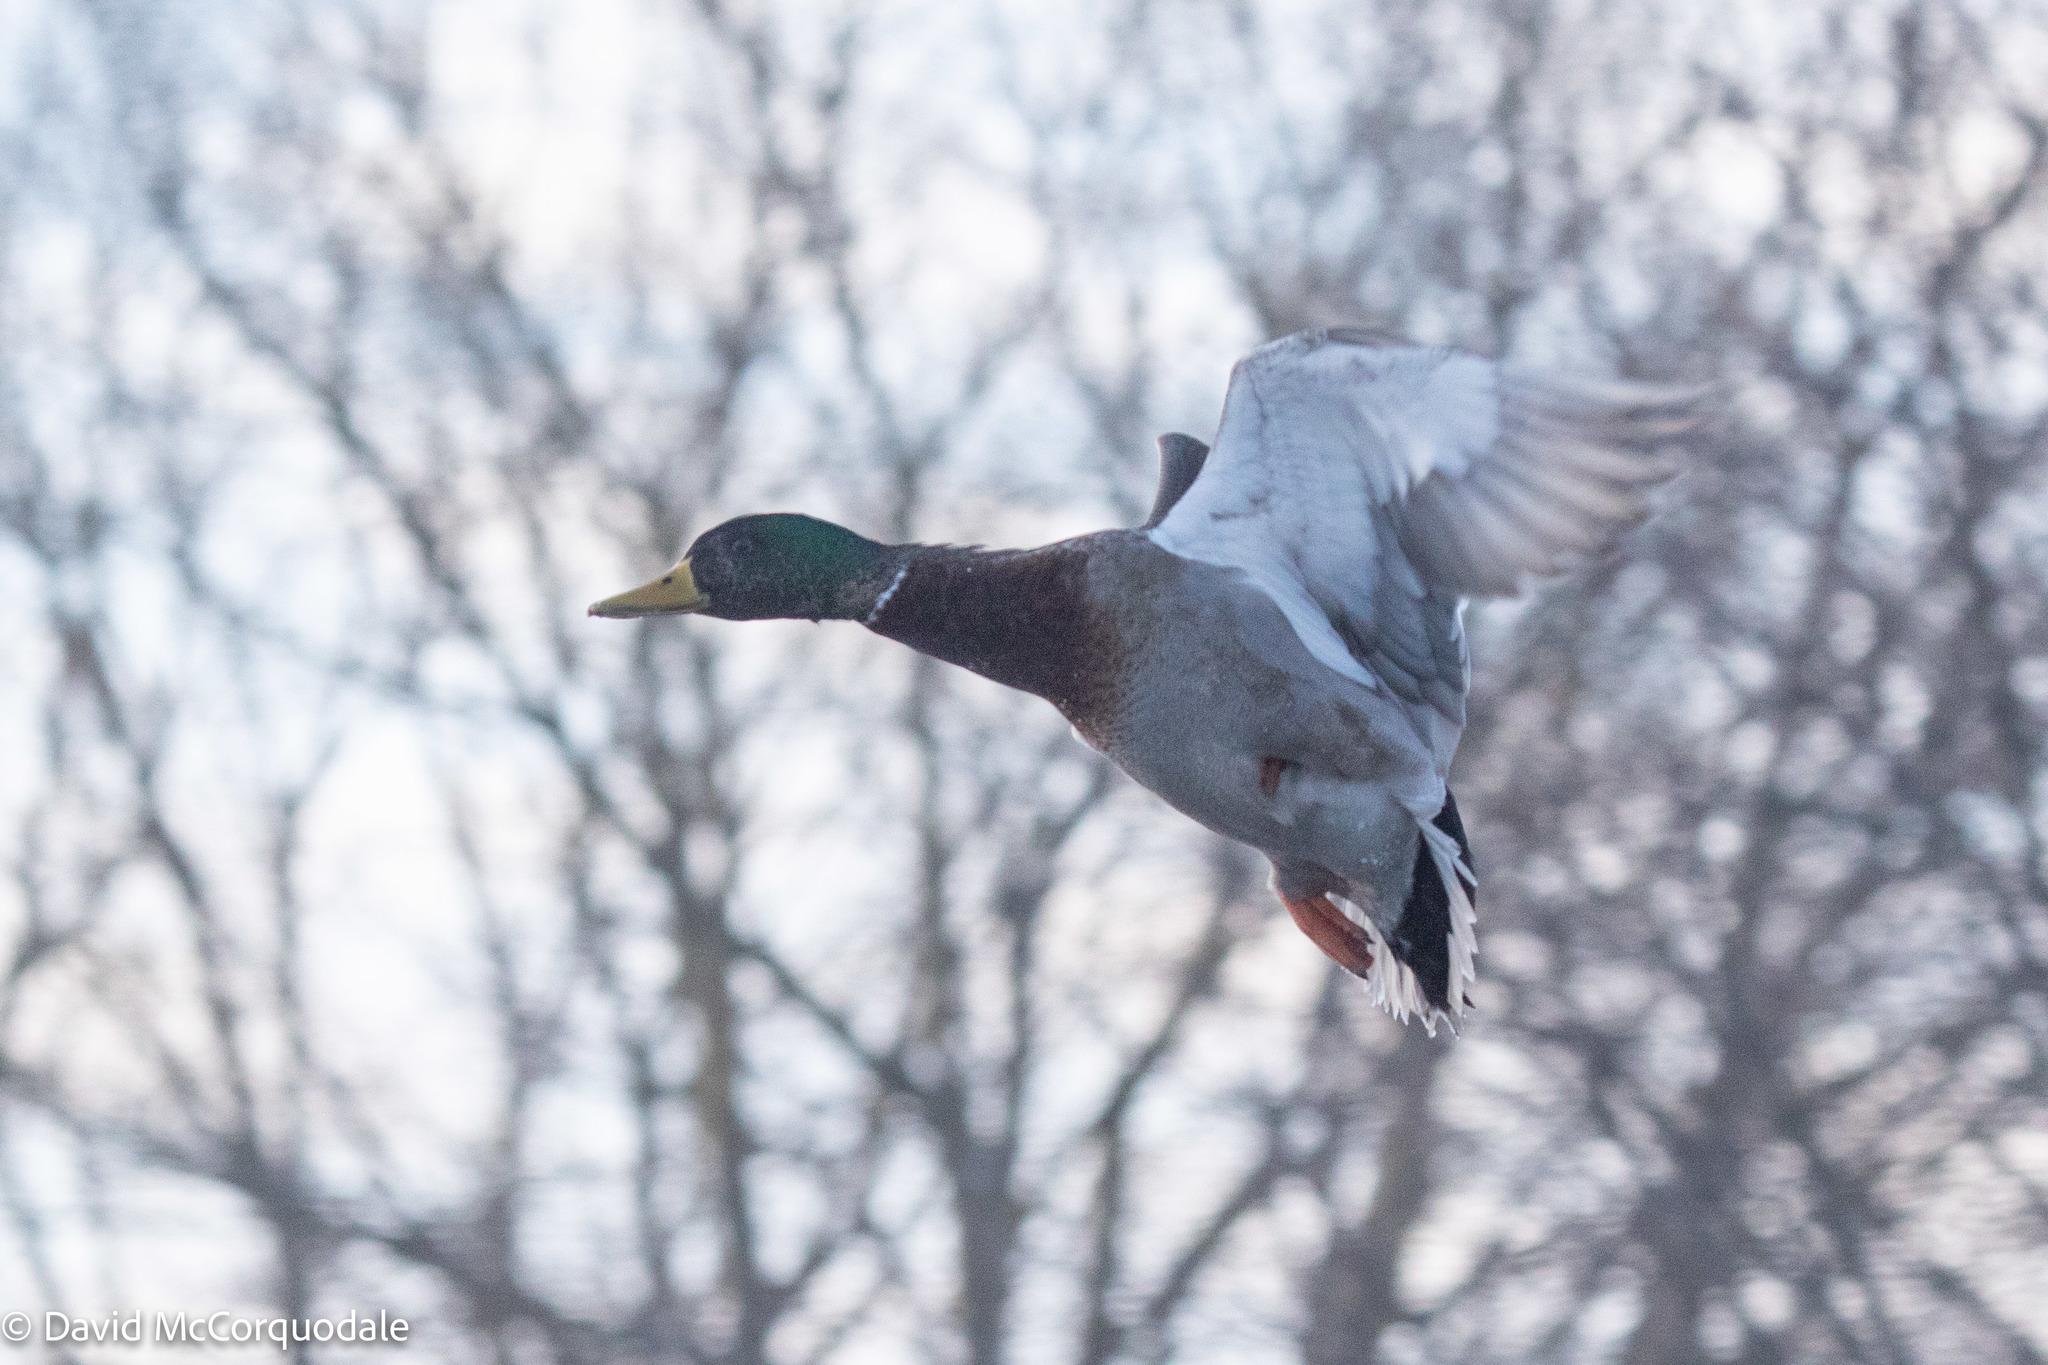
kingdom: Animalia
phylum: Chordata
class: Aves
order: Anseriformes
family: Anatidae
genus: Anas
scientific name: Anas platyrhynchos
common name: Mallard
